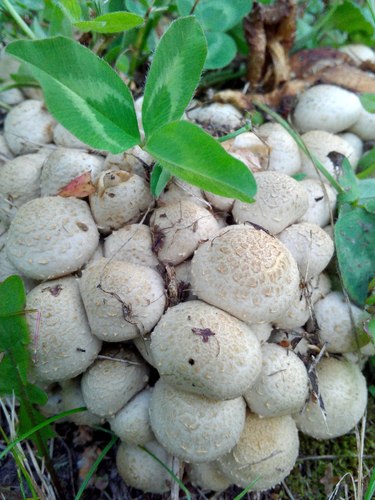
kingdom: Fungi
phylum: Basidiomycota
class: Agaricomycetes
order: Agaricales
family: Strophariaceae
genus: Pholiota
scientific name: Pholiota gummosa
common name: Sticky scalycap
